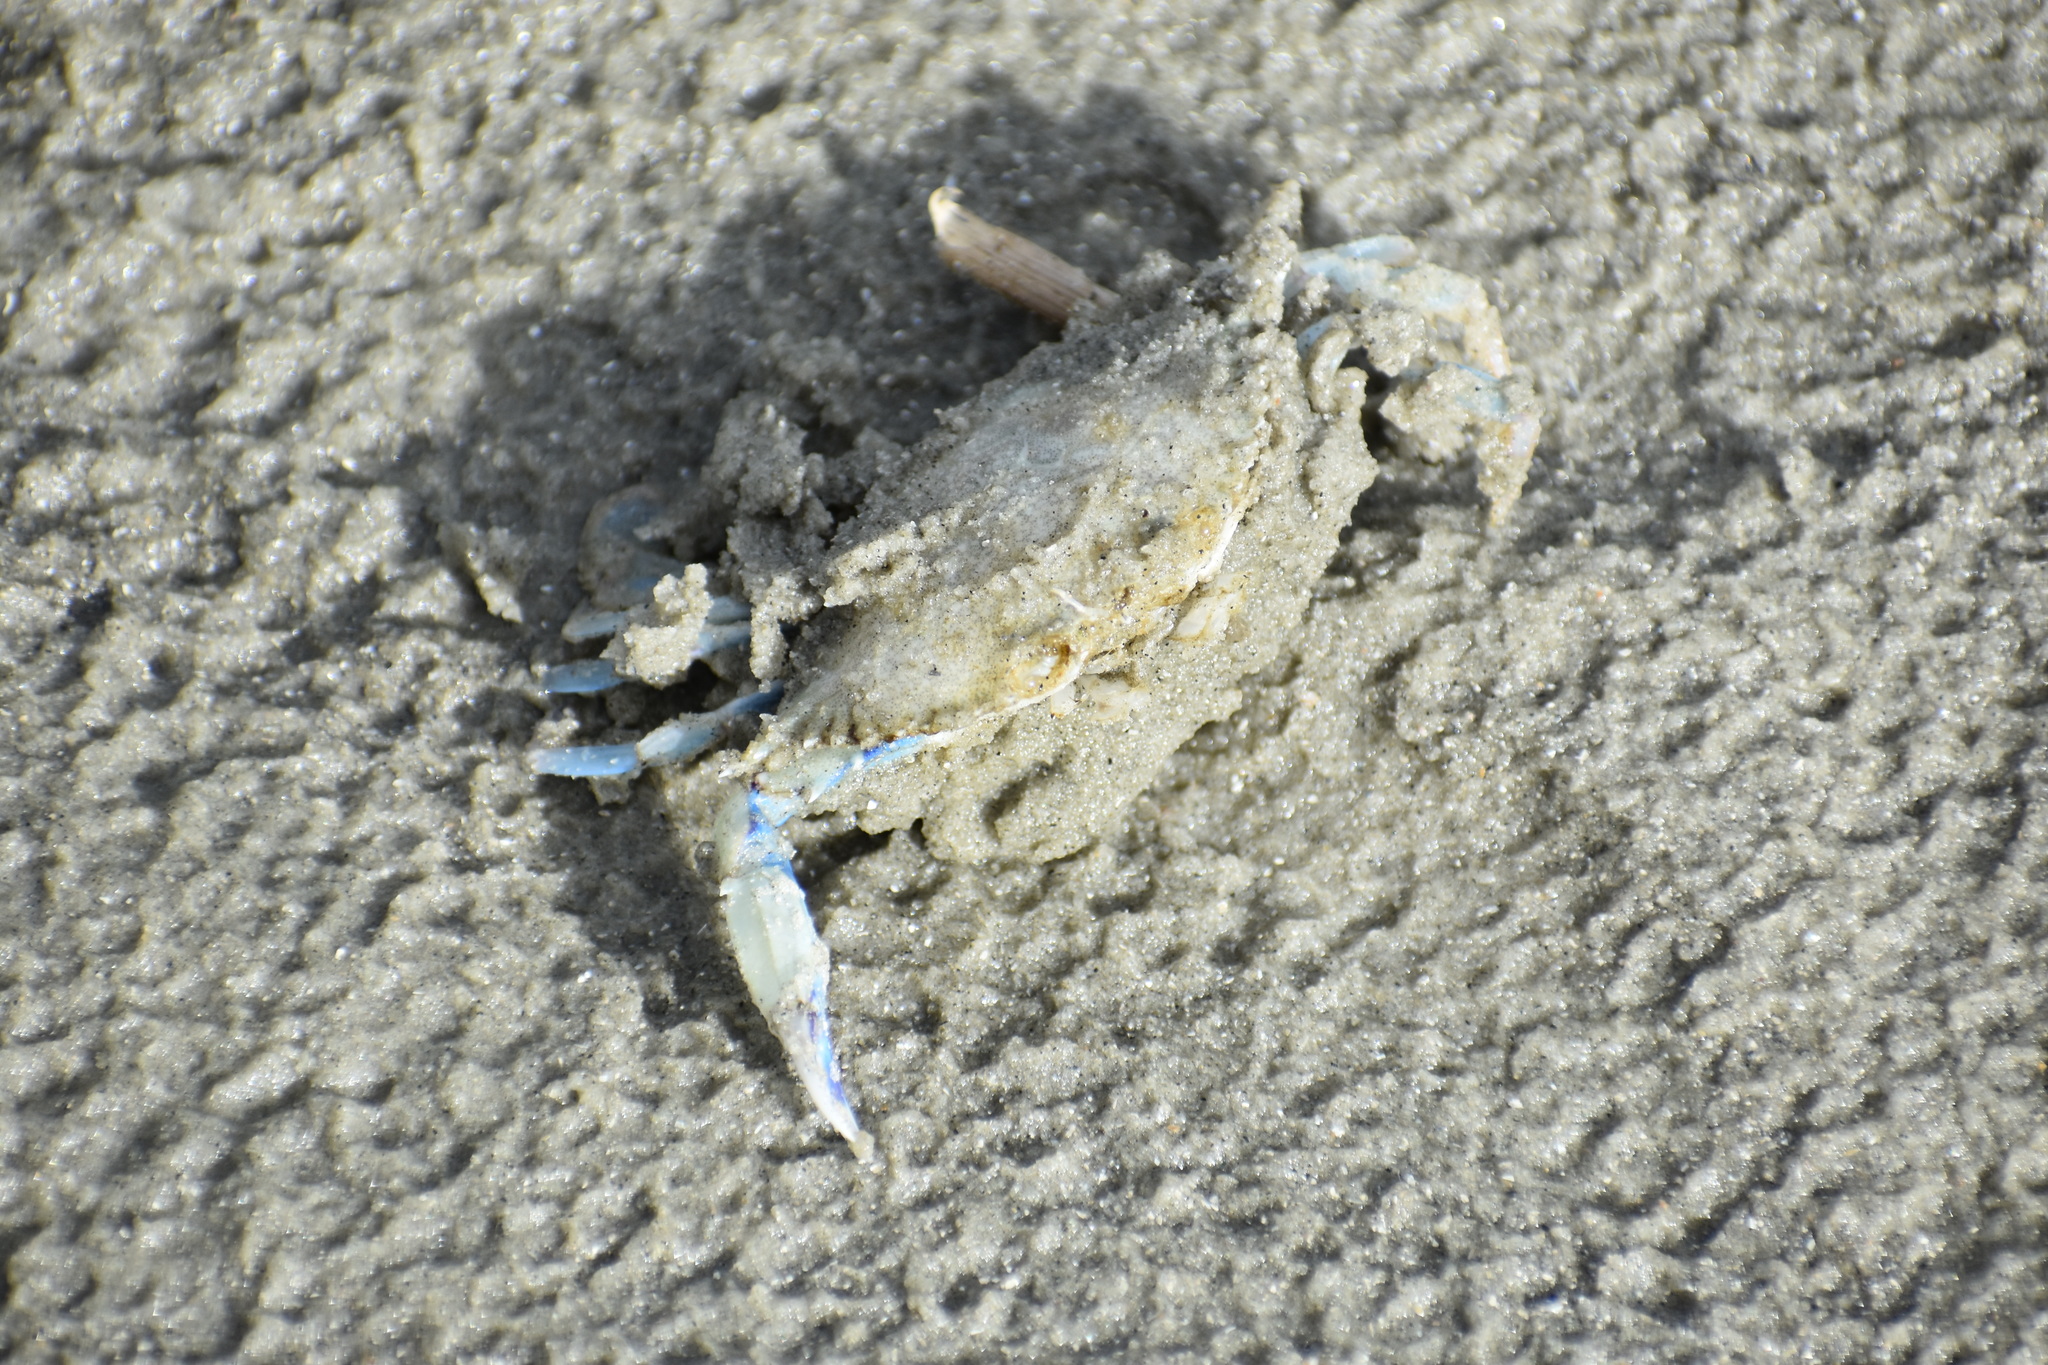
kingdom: Animalia
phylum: Arthropoda
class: Malacostraca
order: Decapoda
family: Portunidae
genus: Callinectes
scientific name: Callinectes similis
